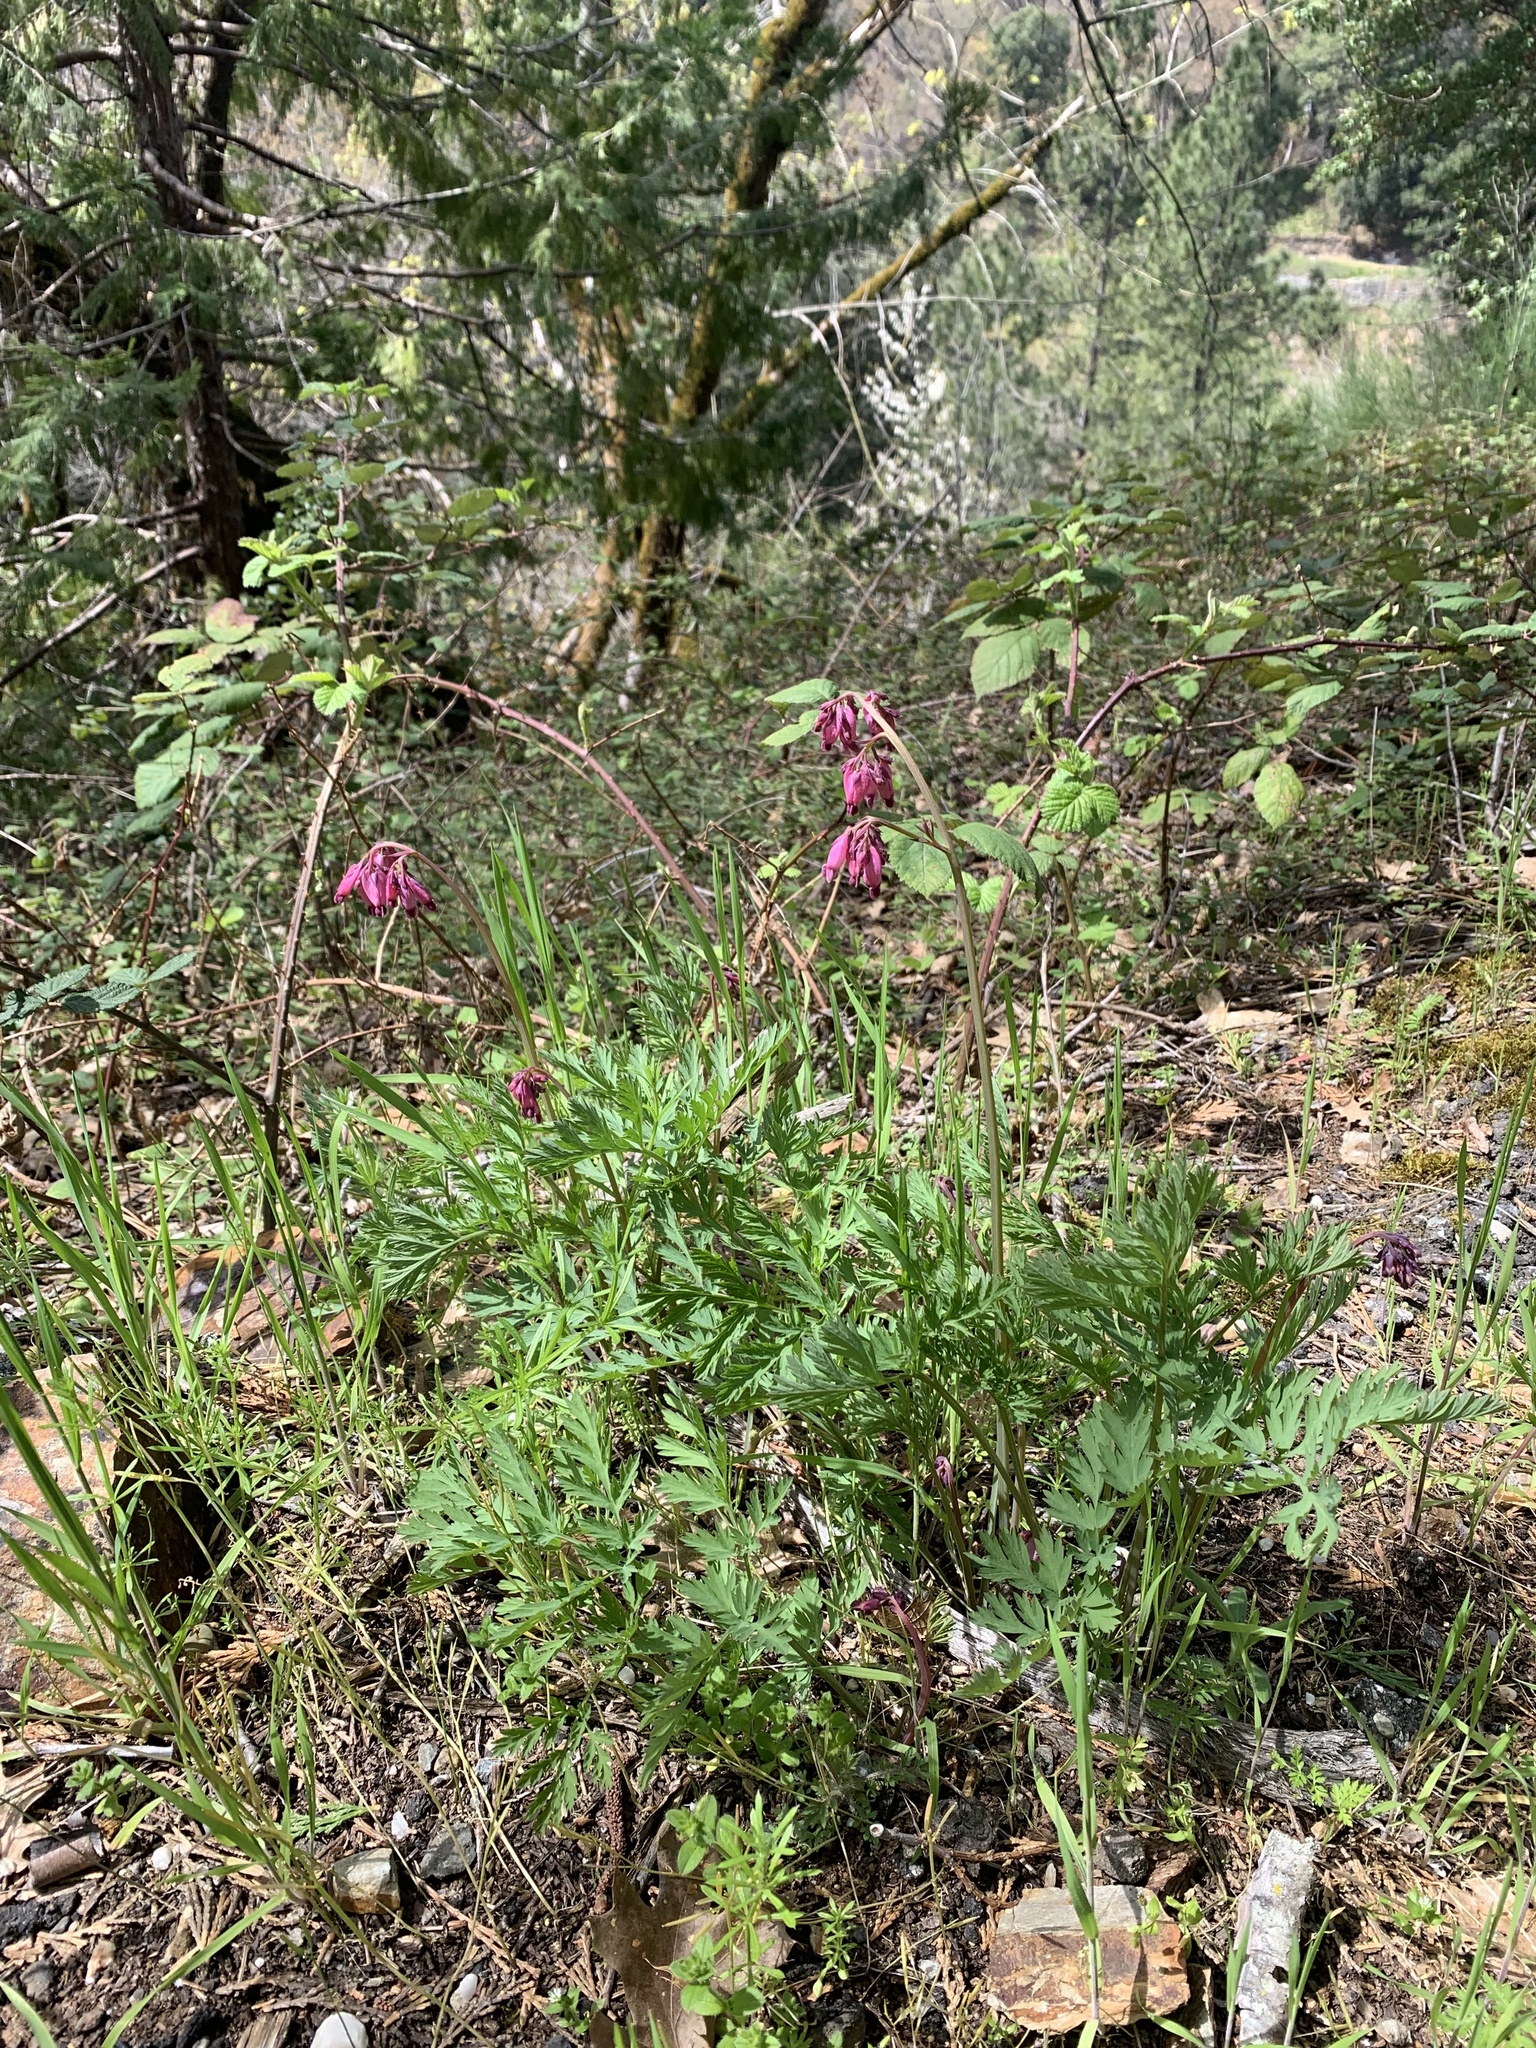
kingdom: Plantae
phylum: Tracheophyta
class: Magnoliopsida
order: Ranunculales
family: Papaveraceae
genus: Dicentra
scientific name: Dicentra formosa
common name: Bleeding-heart
